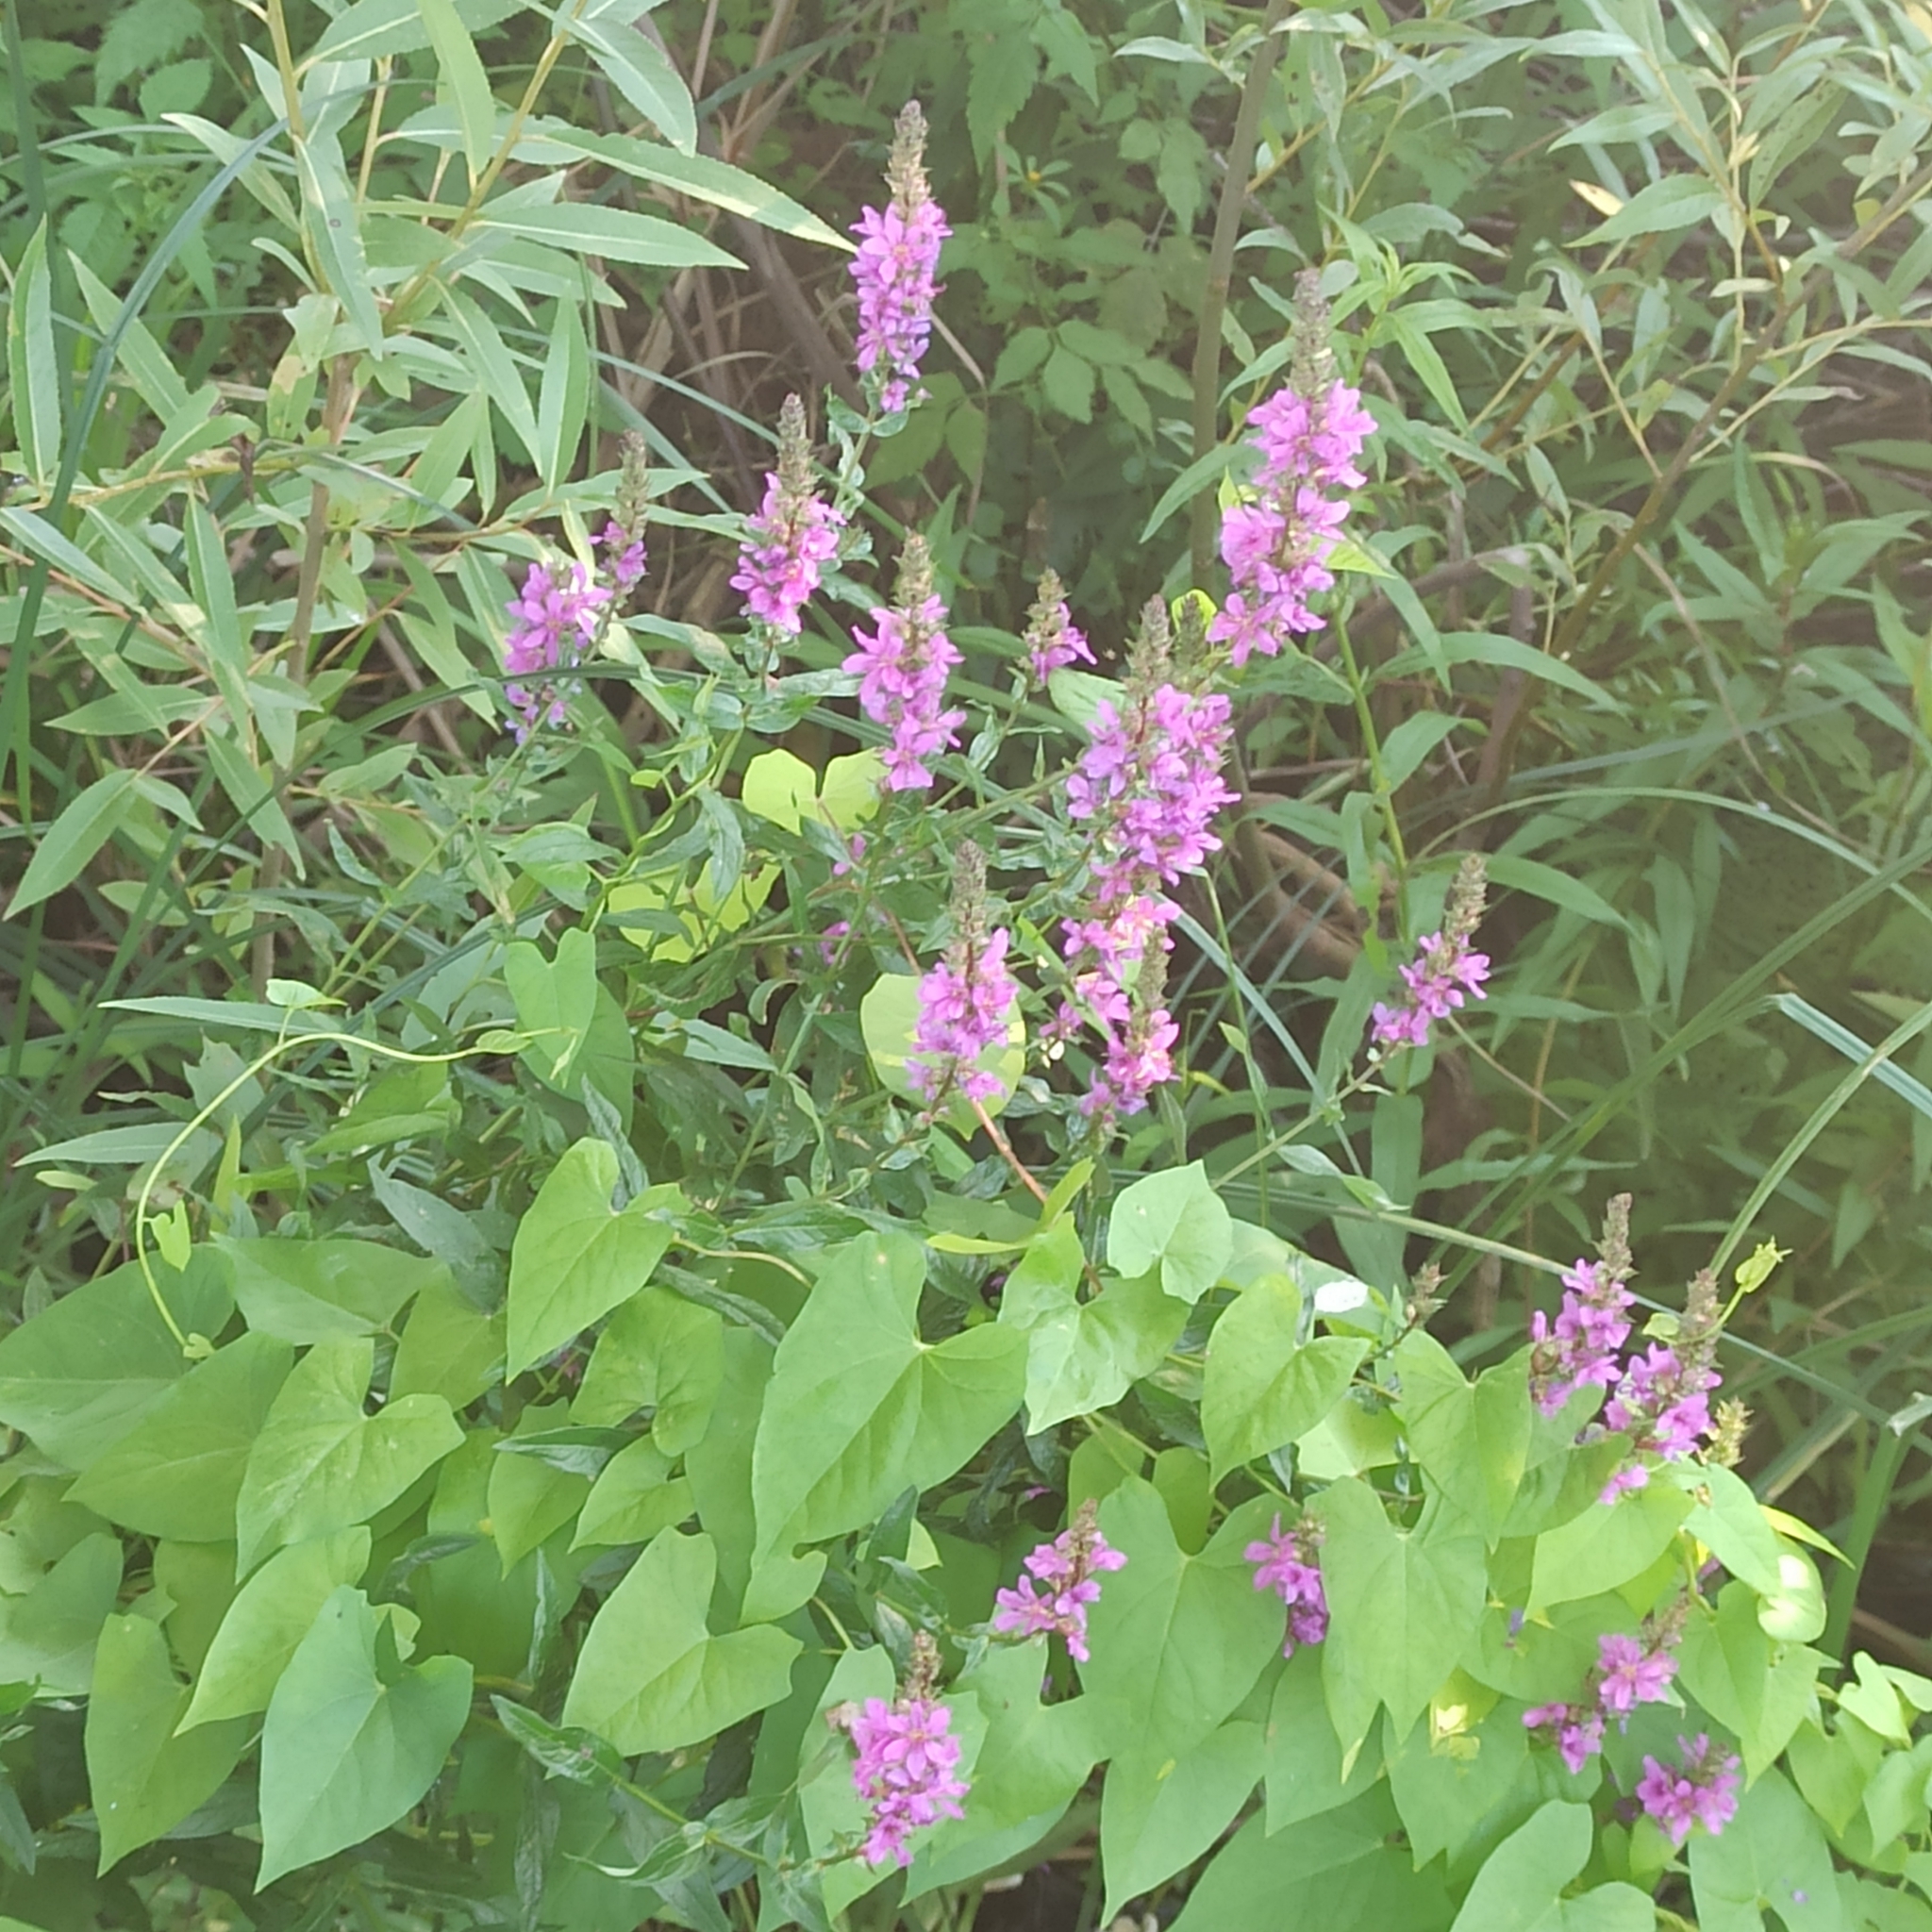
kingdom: Plantae
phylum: Tracheophyta
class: Magnoliopsida
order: Myrtales
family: Lythraceae
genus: Lythrum
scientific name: Lythrum salicaria
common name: Purple loosestrife
